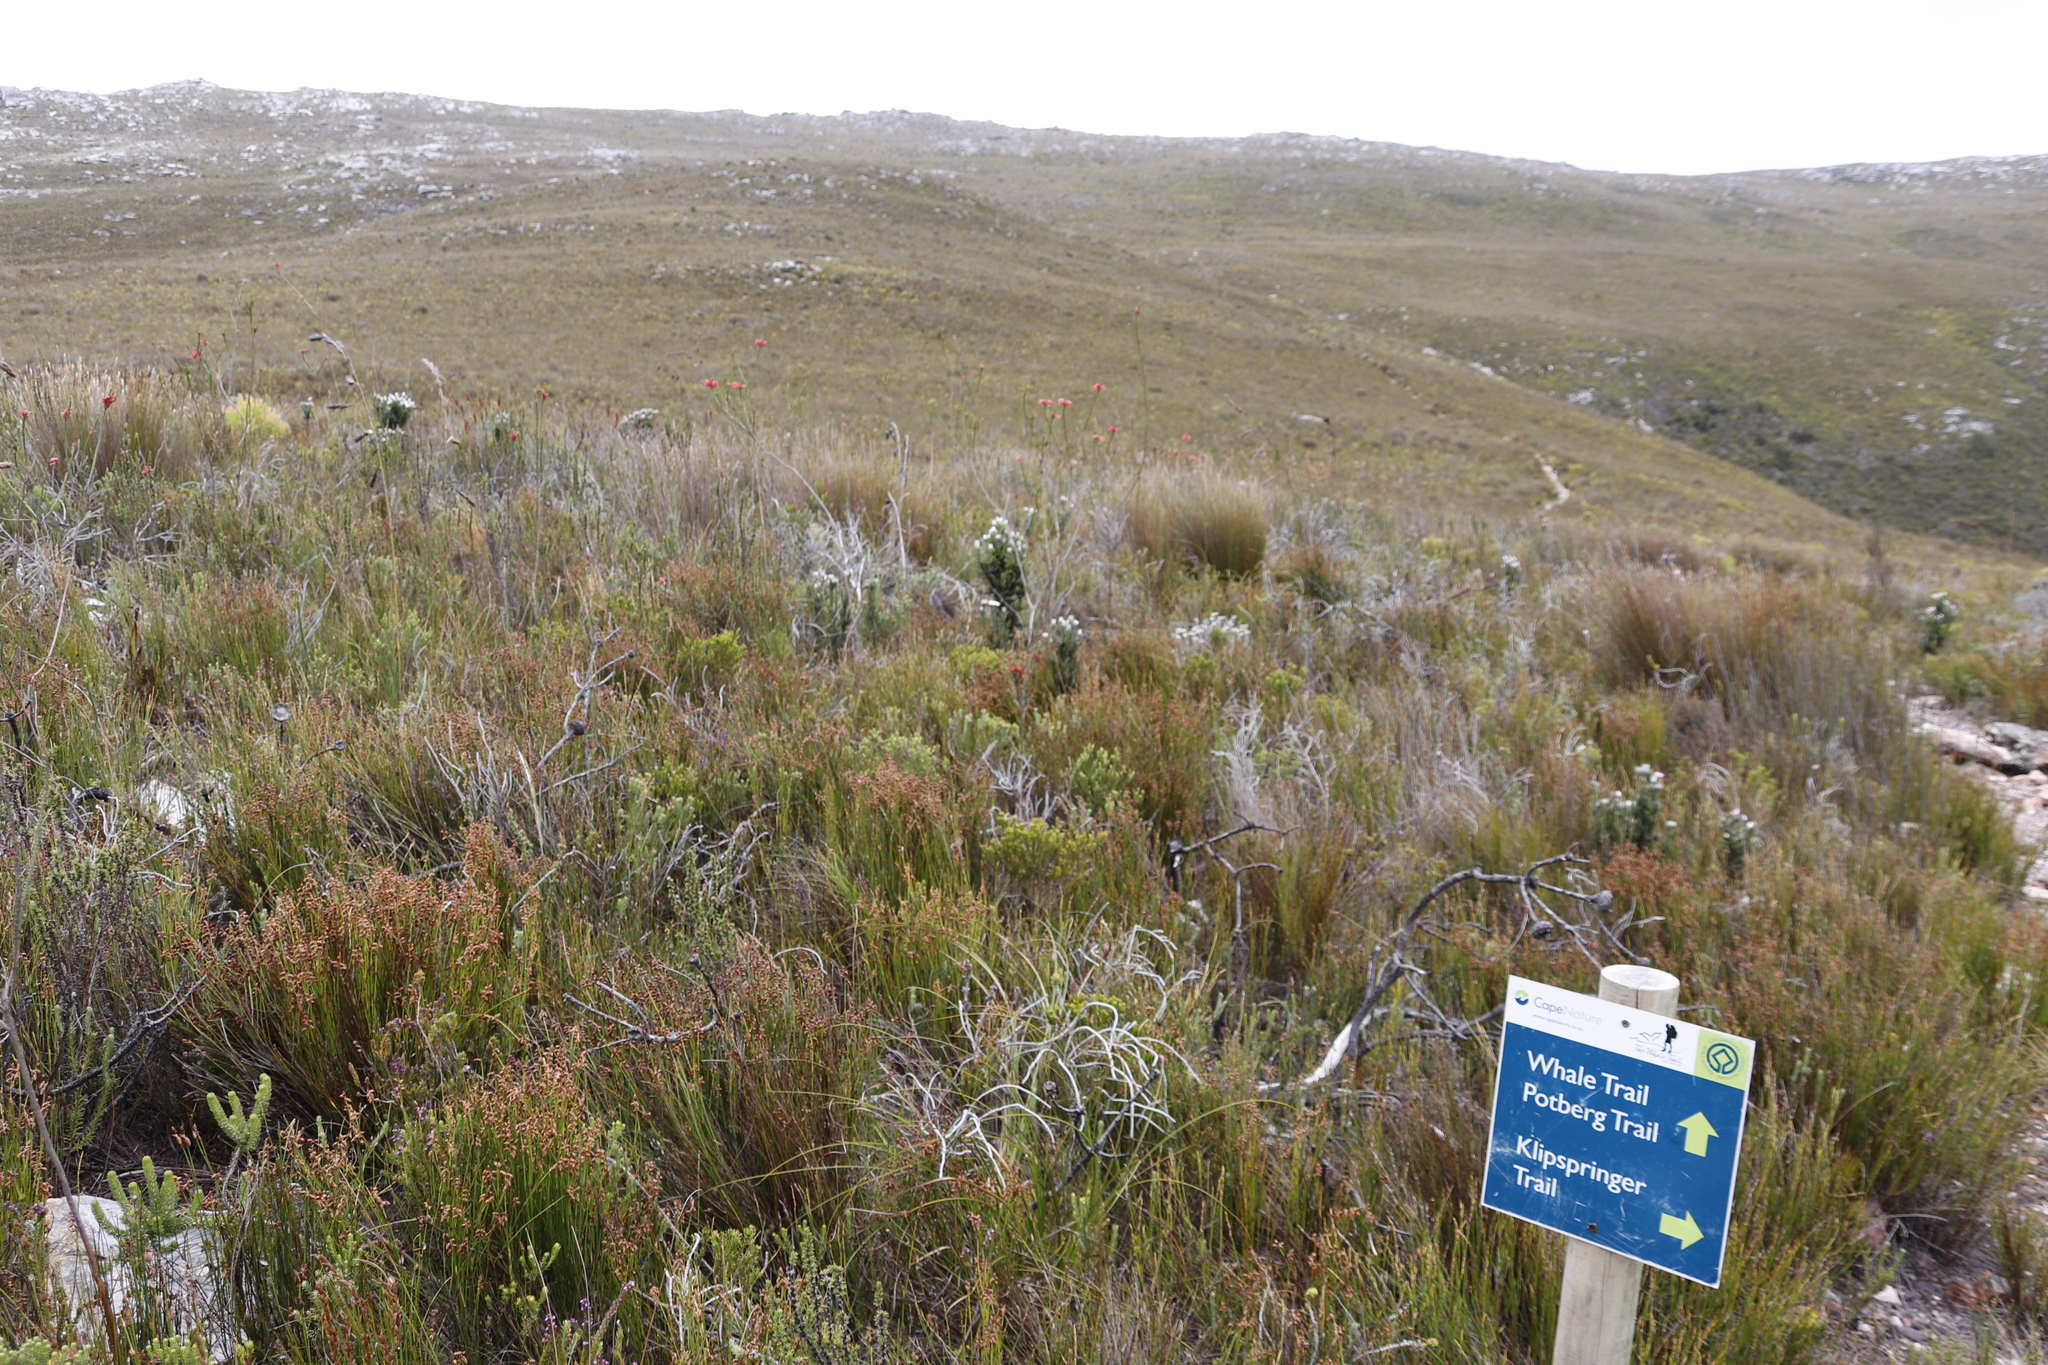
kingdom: Plantae
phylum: Tracheophyta
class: Magnoliopsida
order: Ericales
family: Ericaceae
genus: Erica
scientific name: Erica regia
